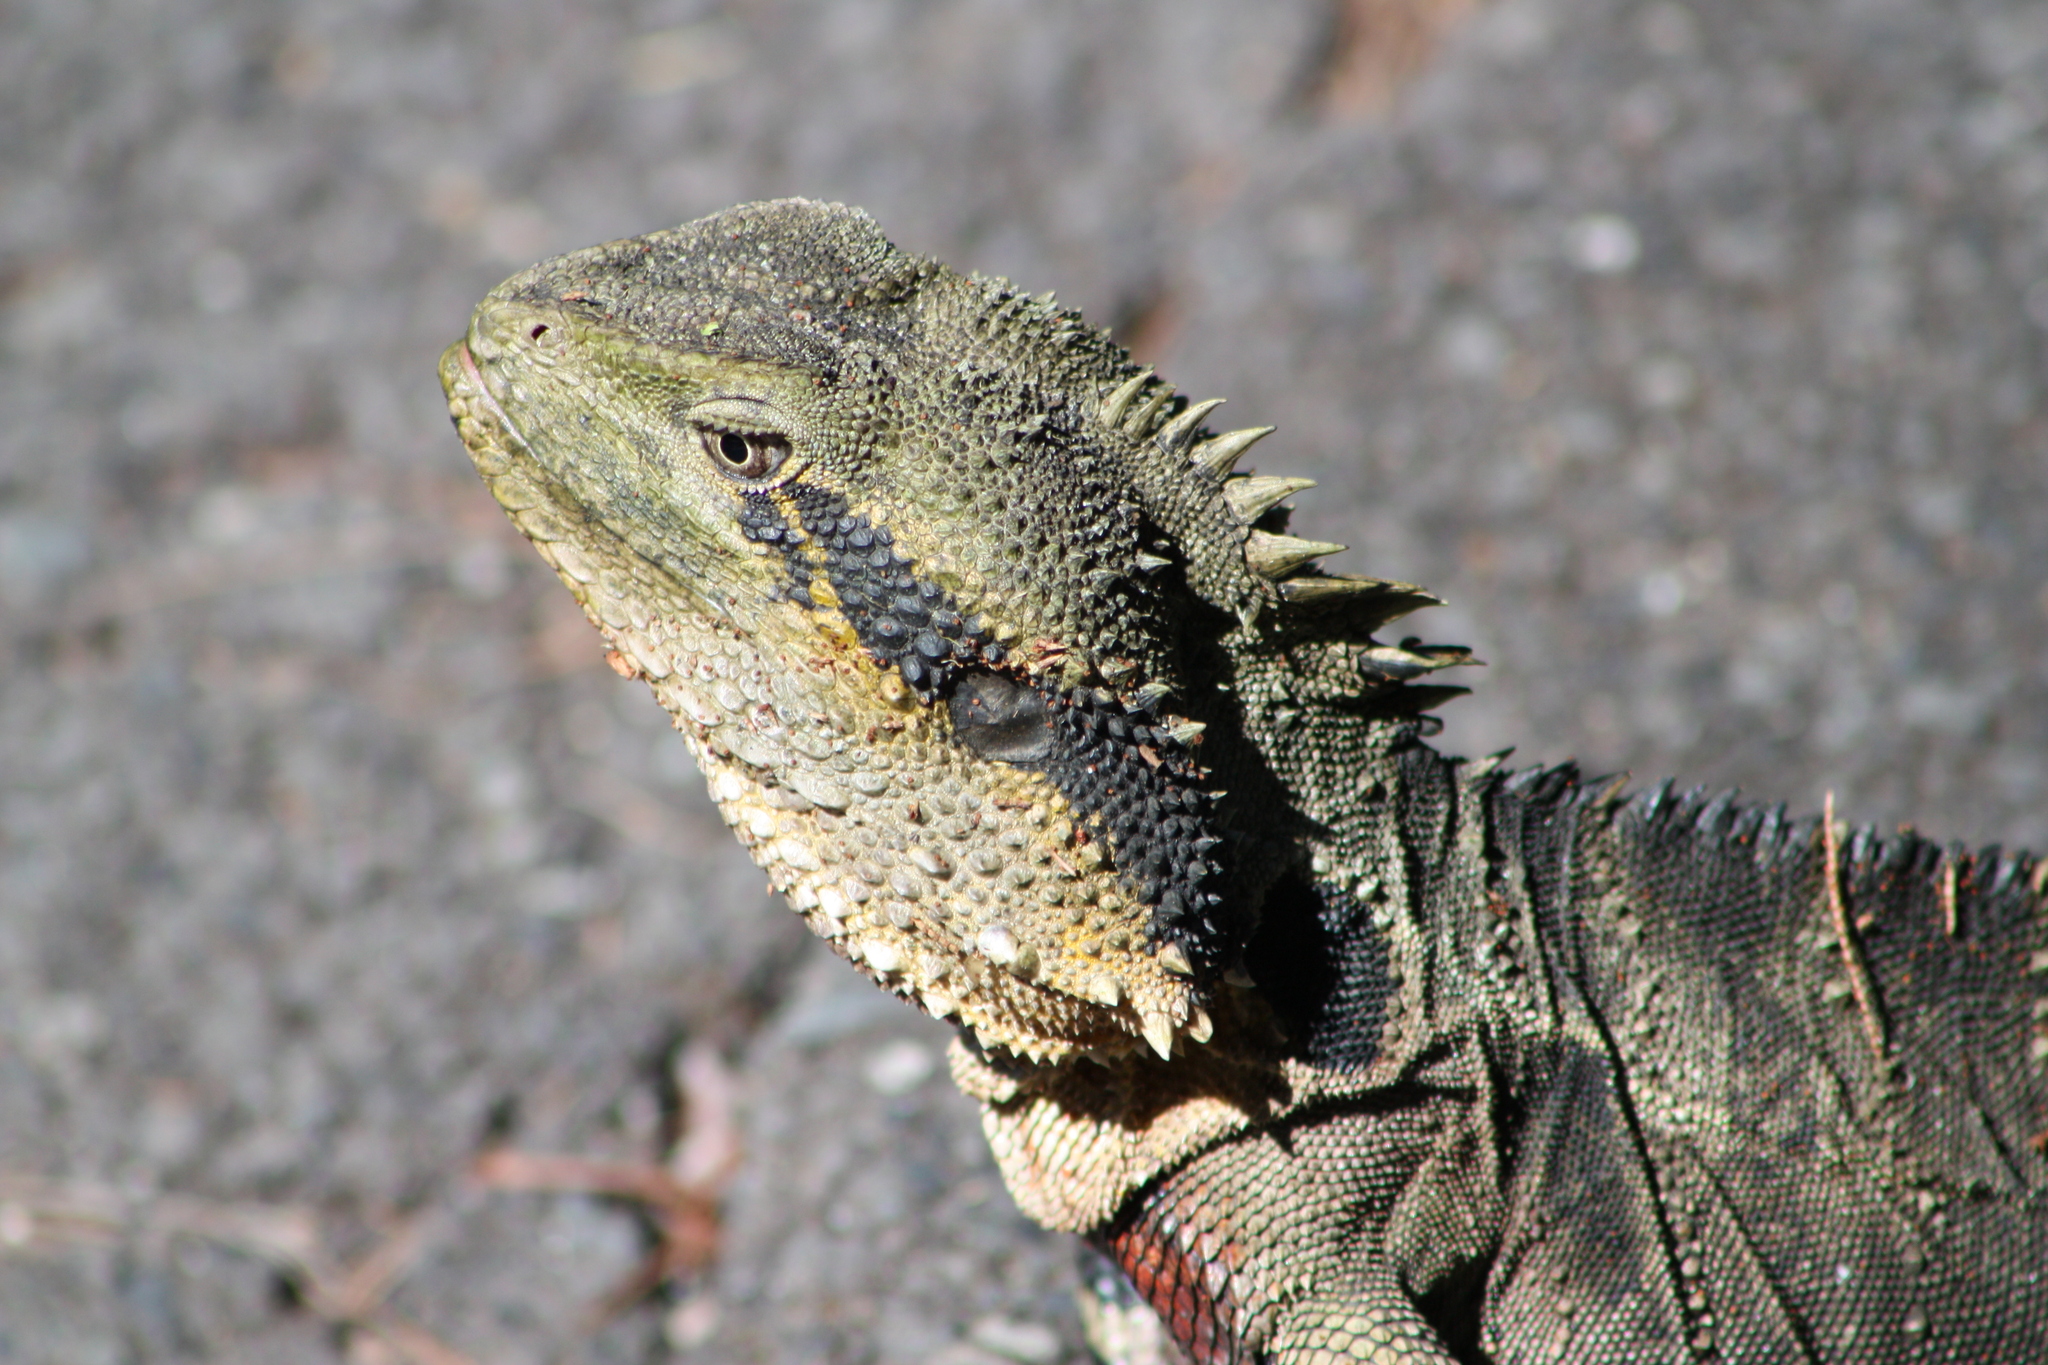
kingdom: Animalia
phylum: Chordata
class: Squamata
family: Agamidae
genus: Intellagama
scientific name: Intellagama lesueurii
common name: Eastern water dragon
